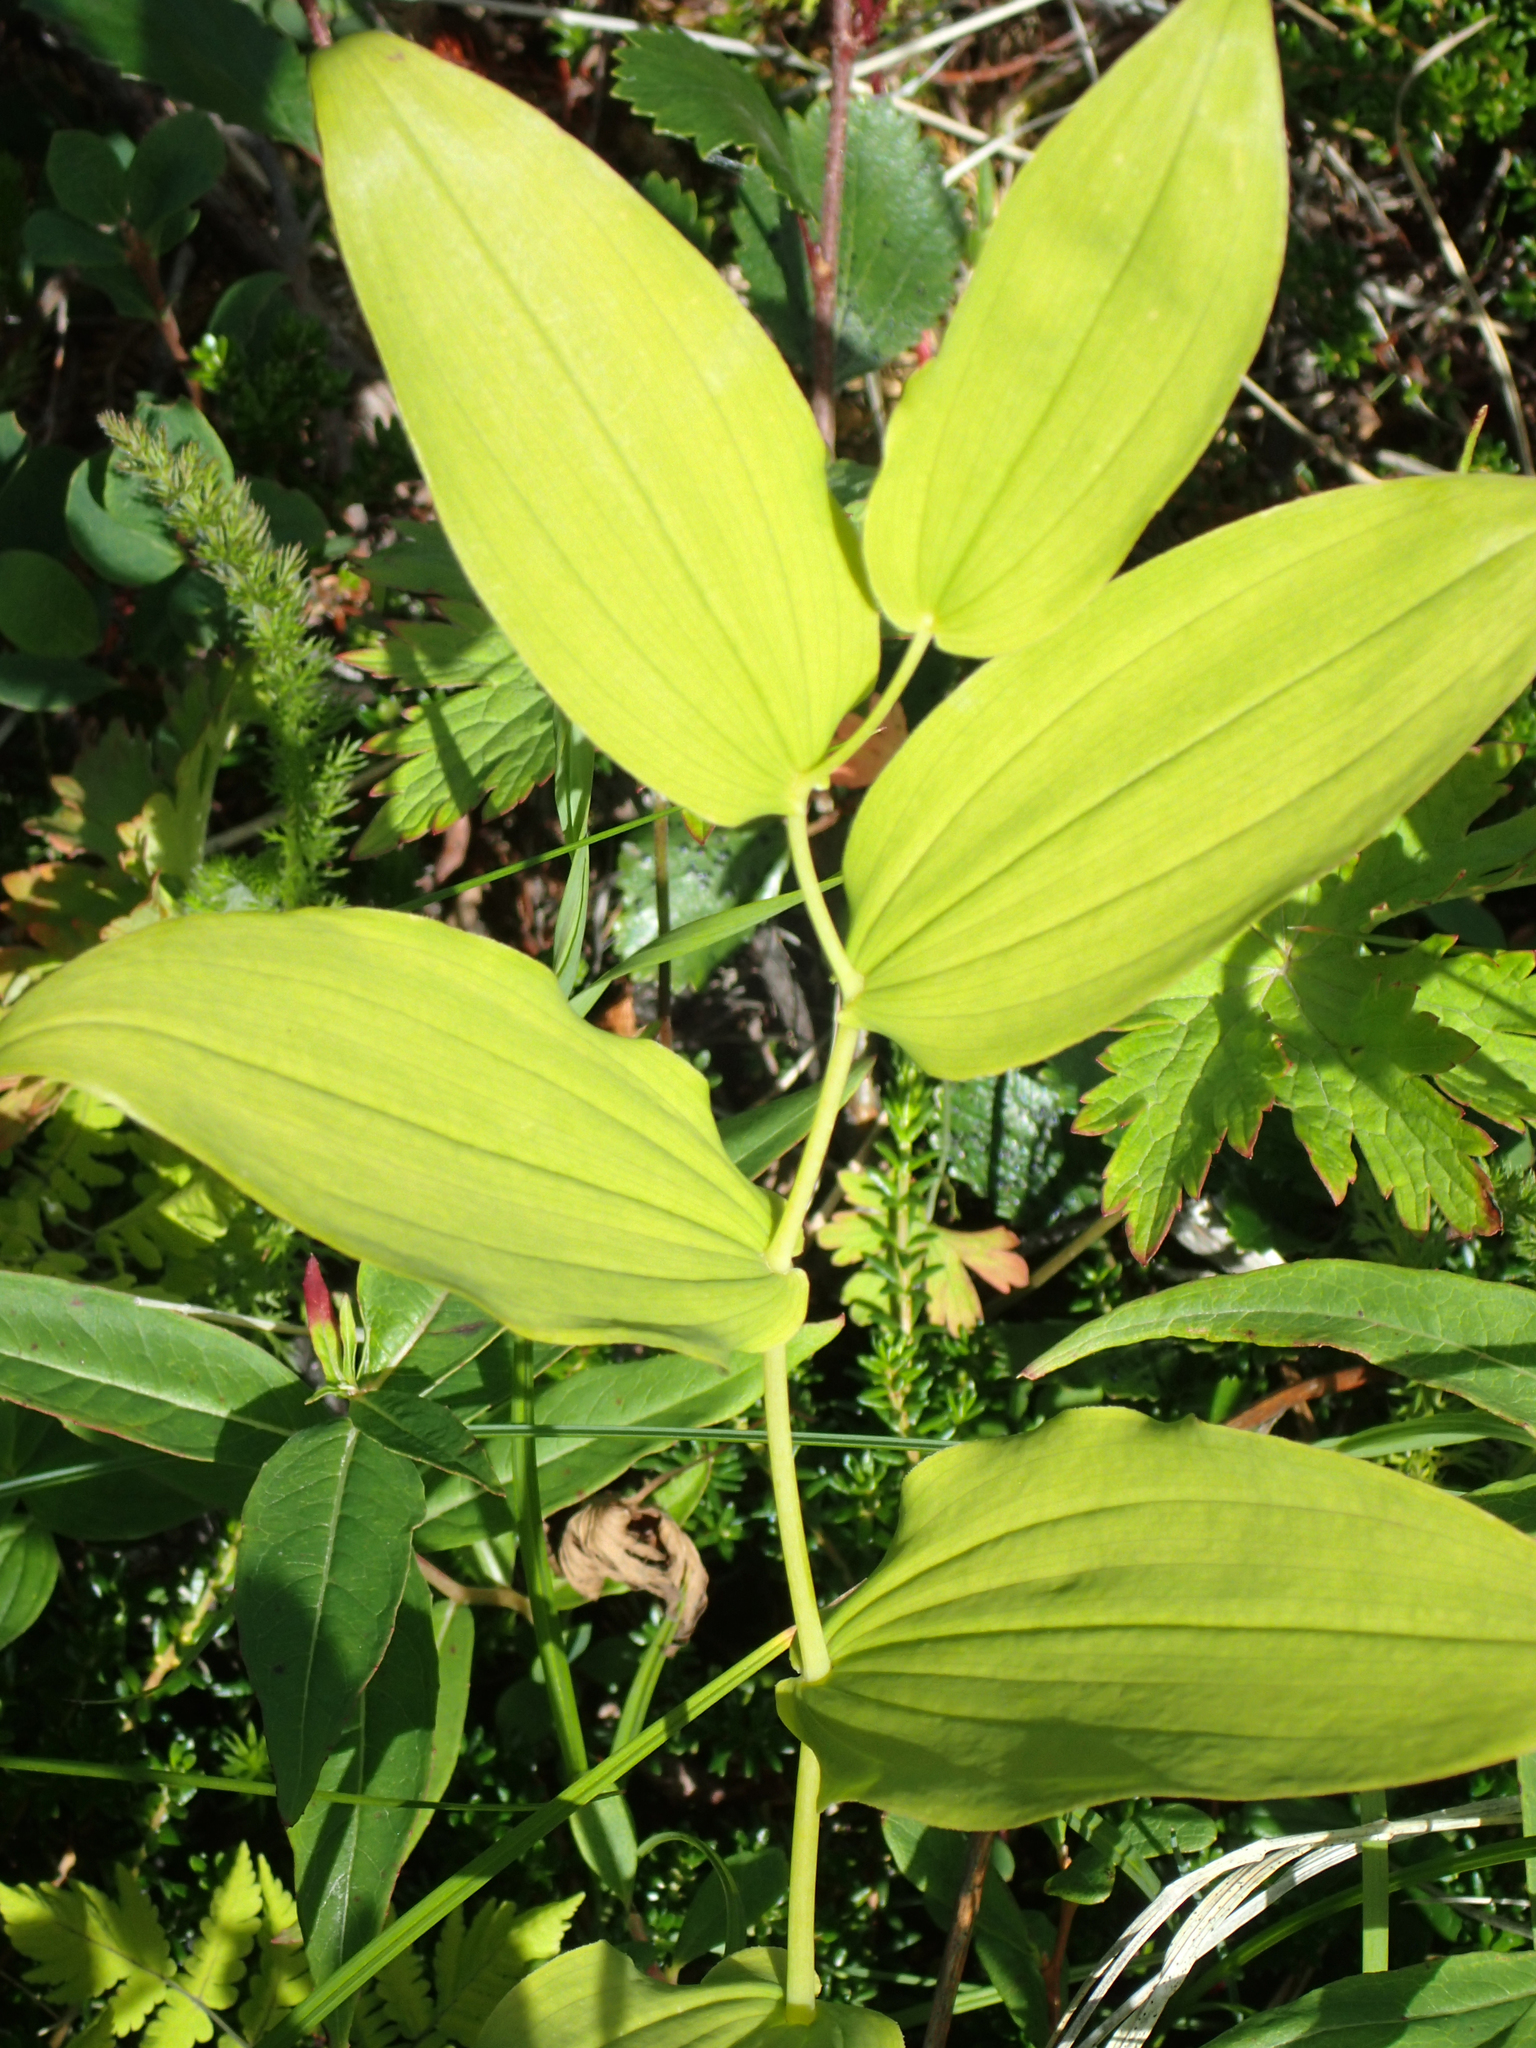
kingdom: Plantae
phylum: Tracheophyta
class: Liliopsida
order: Liliales
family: Liliaceae
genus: Streptopus
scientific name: Streptopus amplexifolius
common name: Clasp twisted stalk
